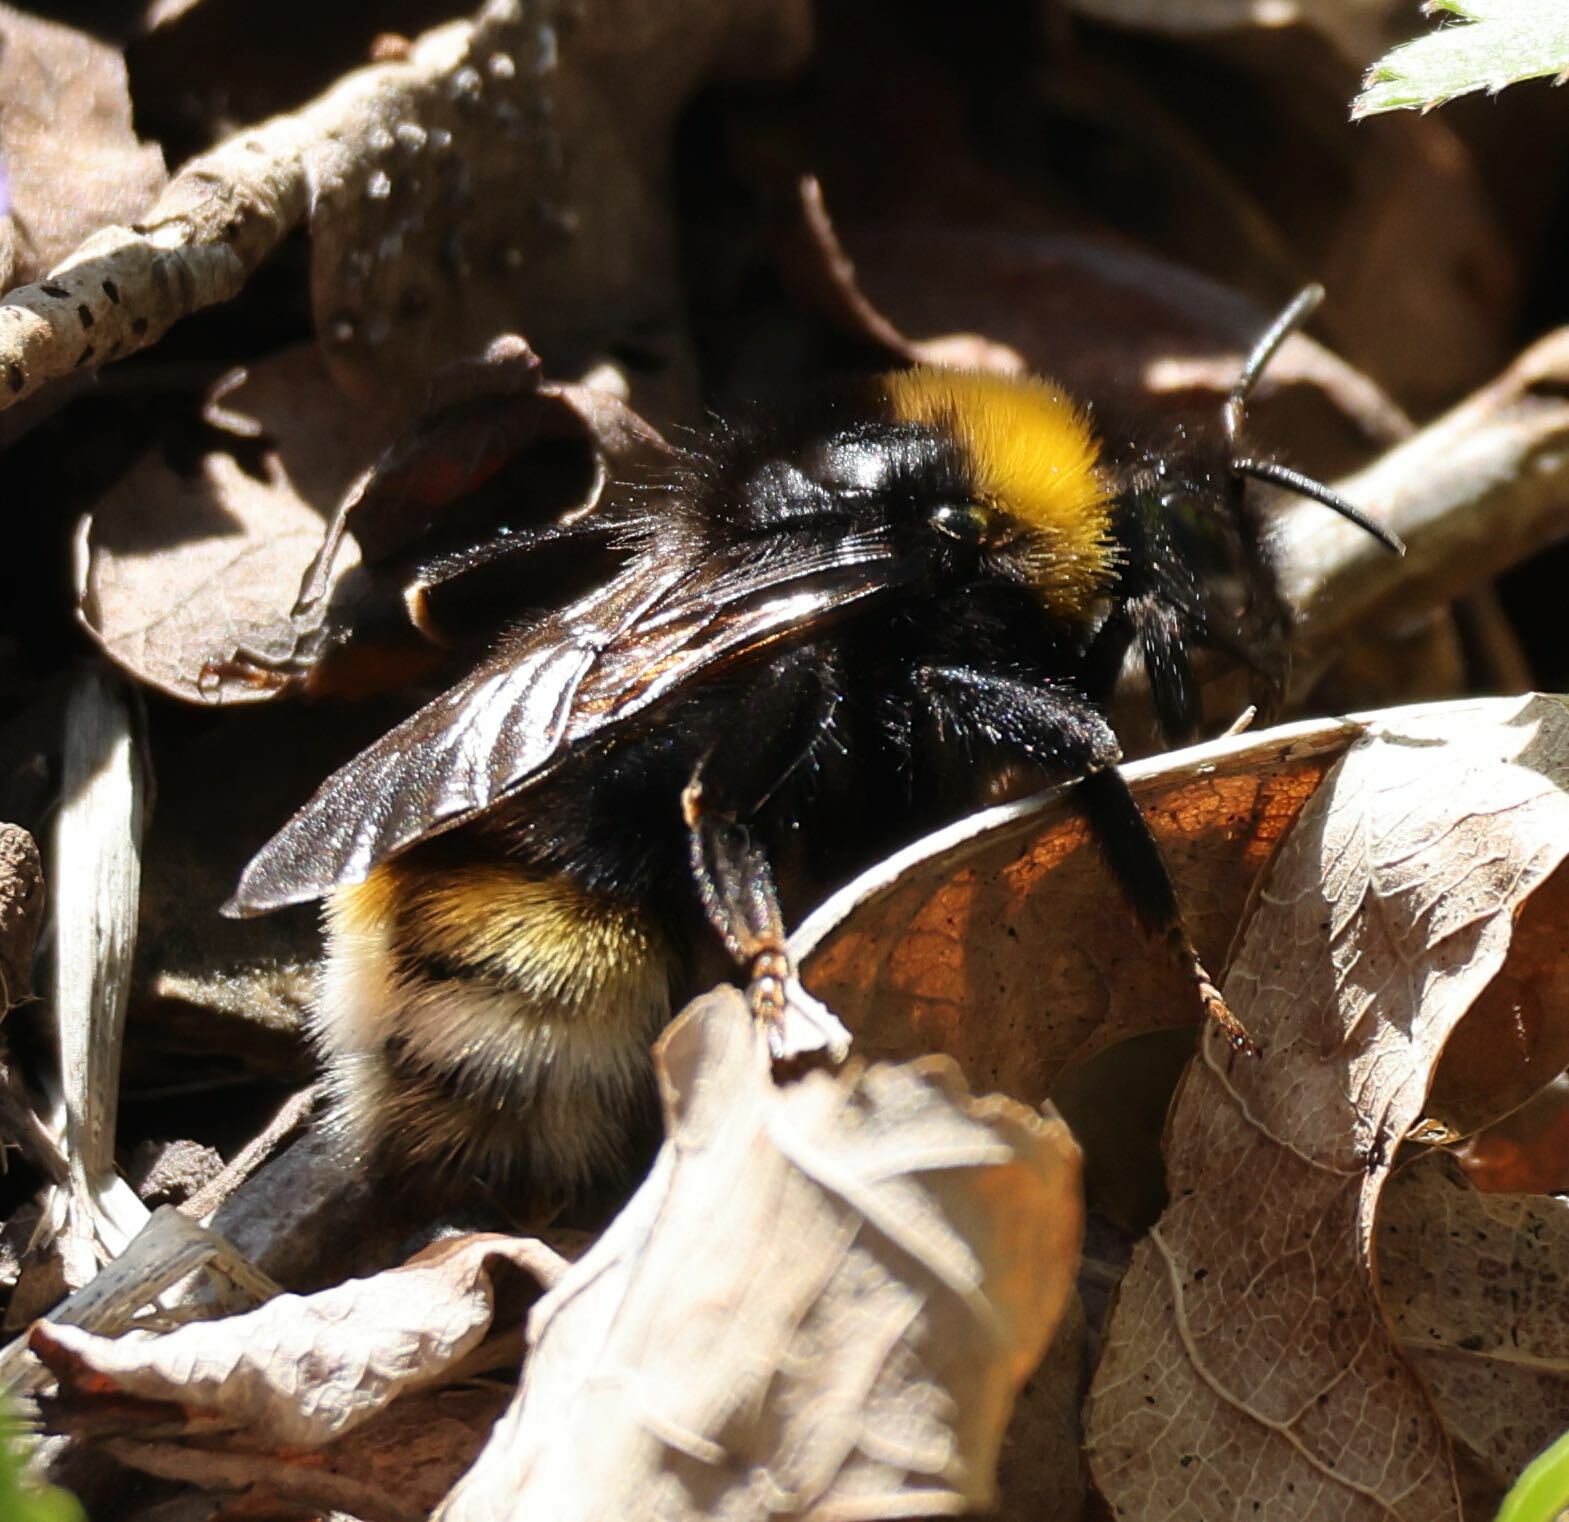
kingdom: Animalia
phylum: Arthropoda
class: Insecta
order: Hymenoptera
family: Apidae
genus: Bombus
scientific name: Bombus vestalis
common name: Vestal cuckoo bee
